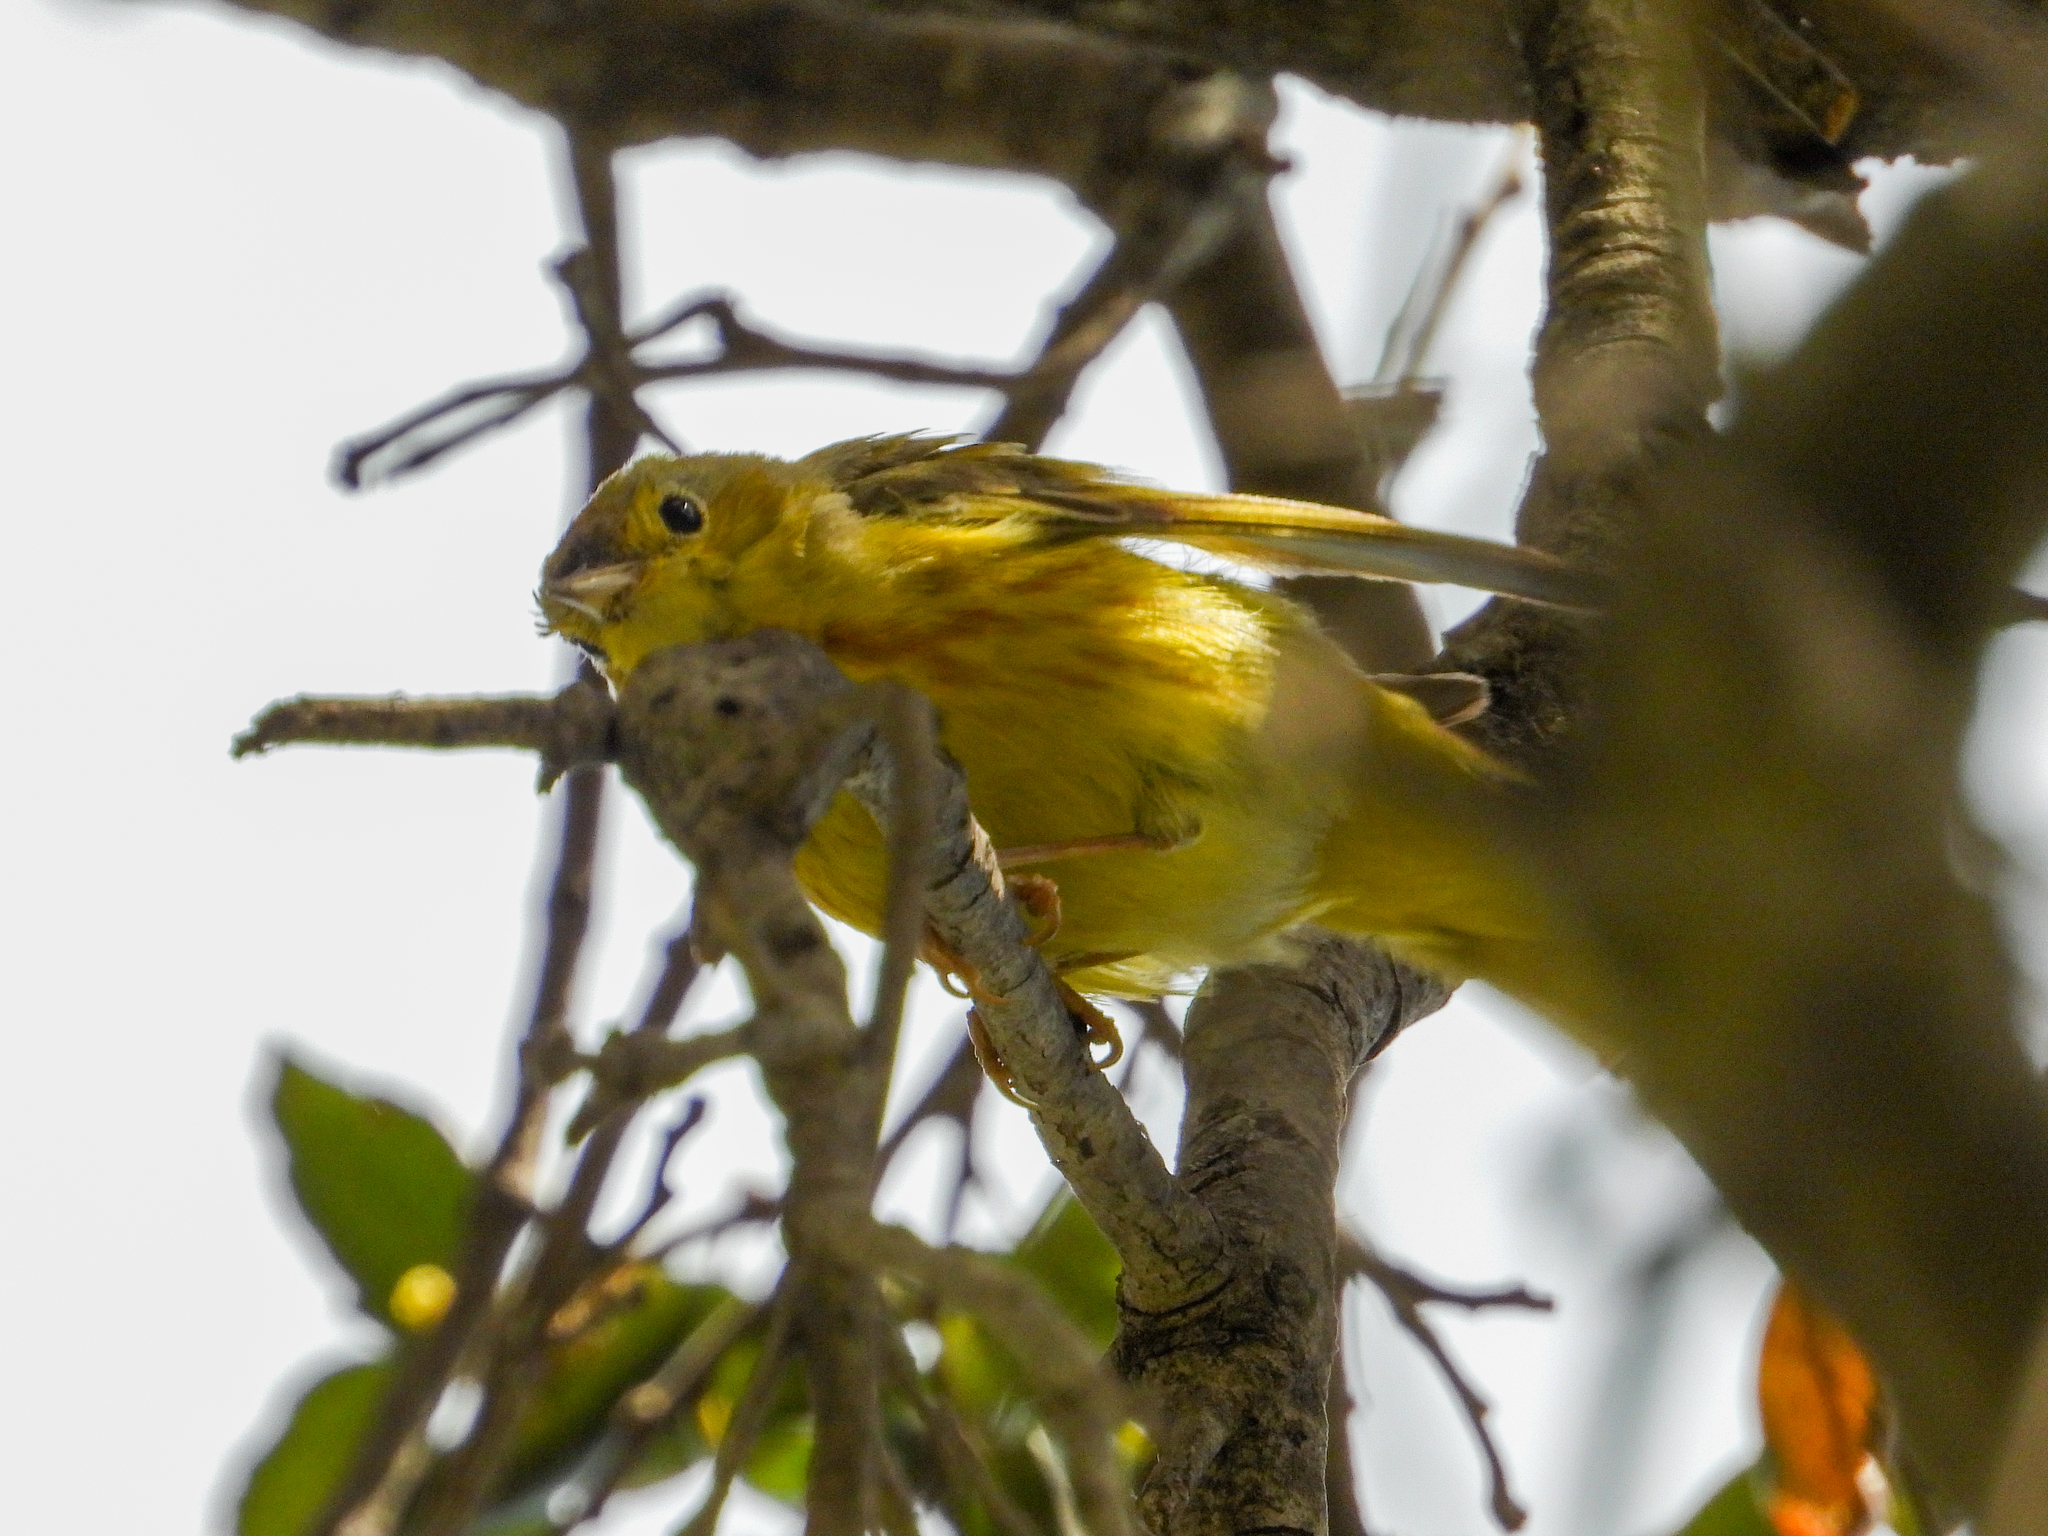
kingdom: Animalia
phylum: Chordata
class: Aves
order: Passeriformes
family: Parulidae
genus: Setophaga
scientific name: Setophaga petechia
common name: Yellow warbler
